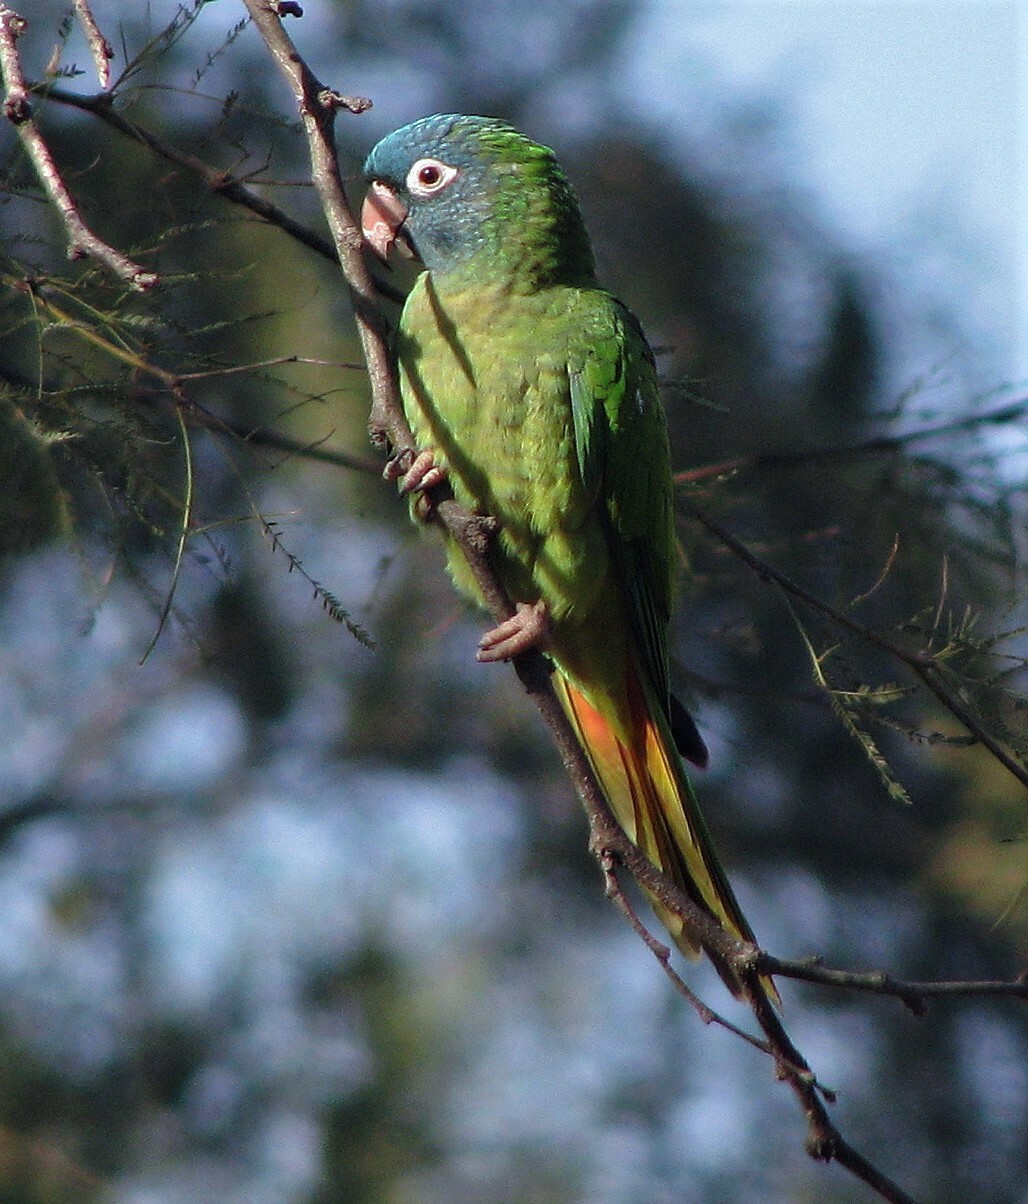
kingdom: Animalia
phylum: Chordata
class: Aves
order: Psittaciformes
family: Psittacidae
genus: Aratinga
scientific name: Aratinga acuticaudata
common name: Blue-crowned parakeet
